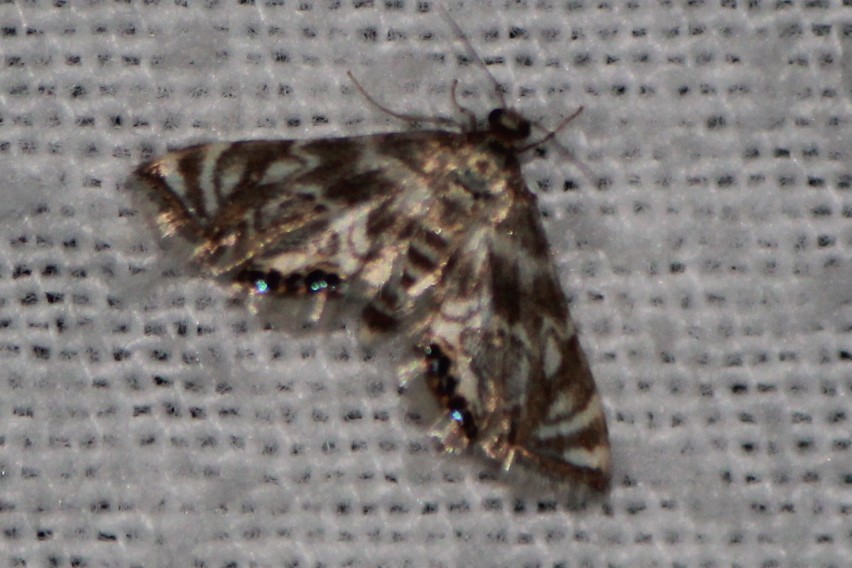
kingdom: Animalia
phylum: Arthropoda
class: Insecta
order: Lepidoptera
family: Crambidae
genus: Petrophila
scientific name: Petrophila canadensis
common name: Canadian petrophila
